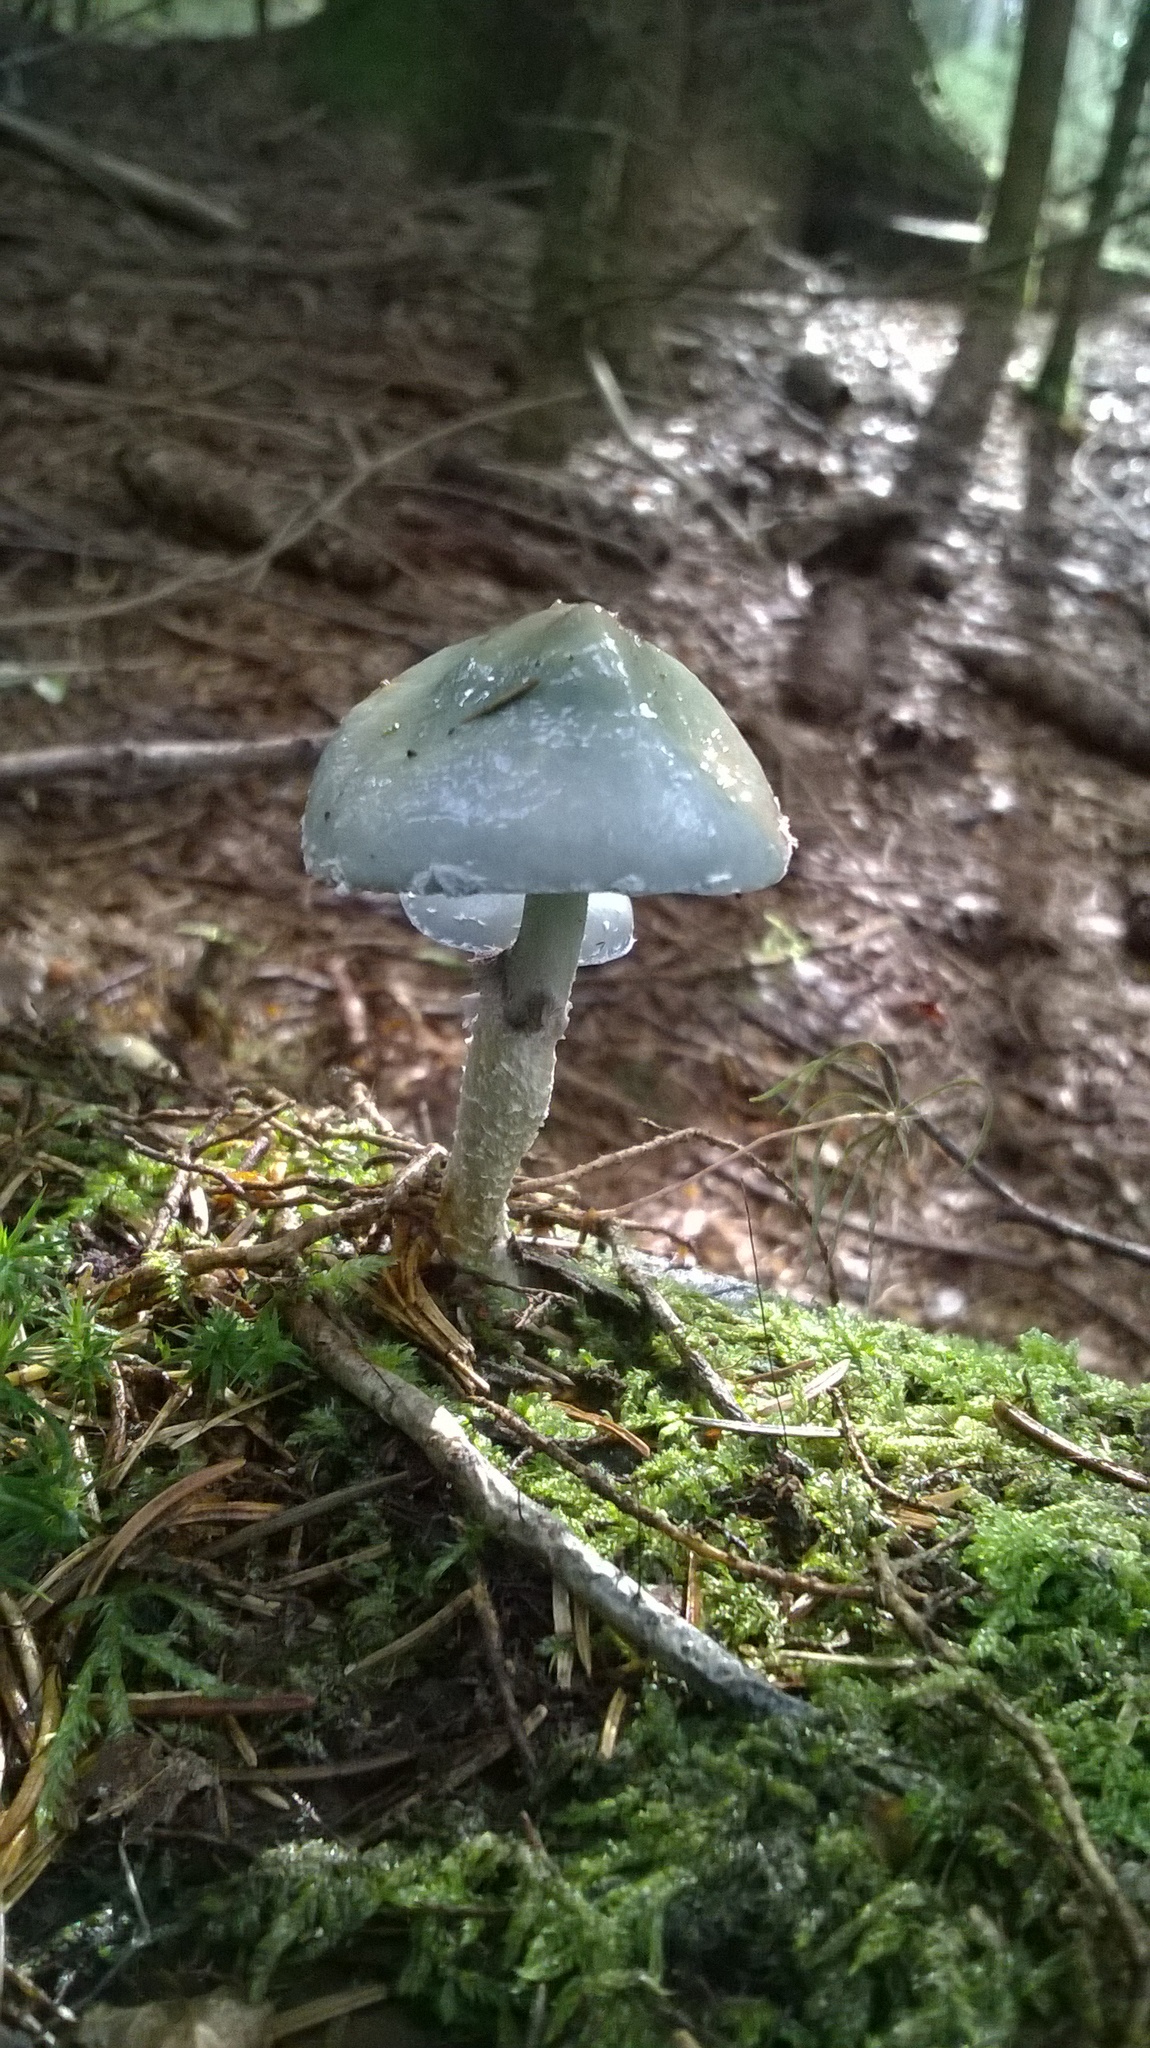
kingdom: Fungi
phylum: Basidiomycota
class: Agaricomycetes
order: Agaricales
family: Strophariaceae
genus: Stropharia
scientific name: Stropharia aeruginosa
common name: Verdigris roundhead
